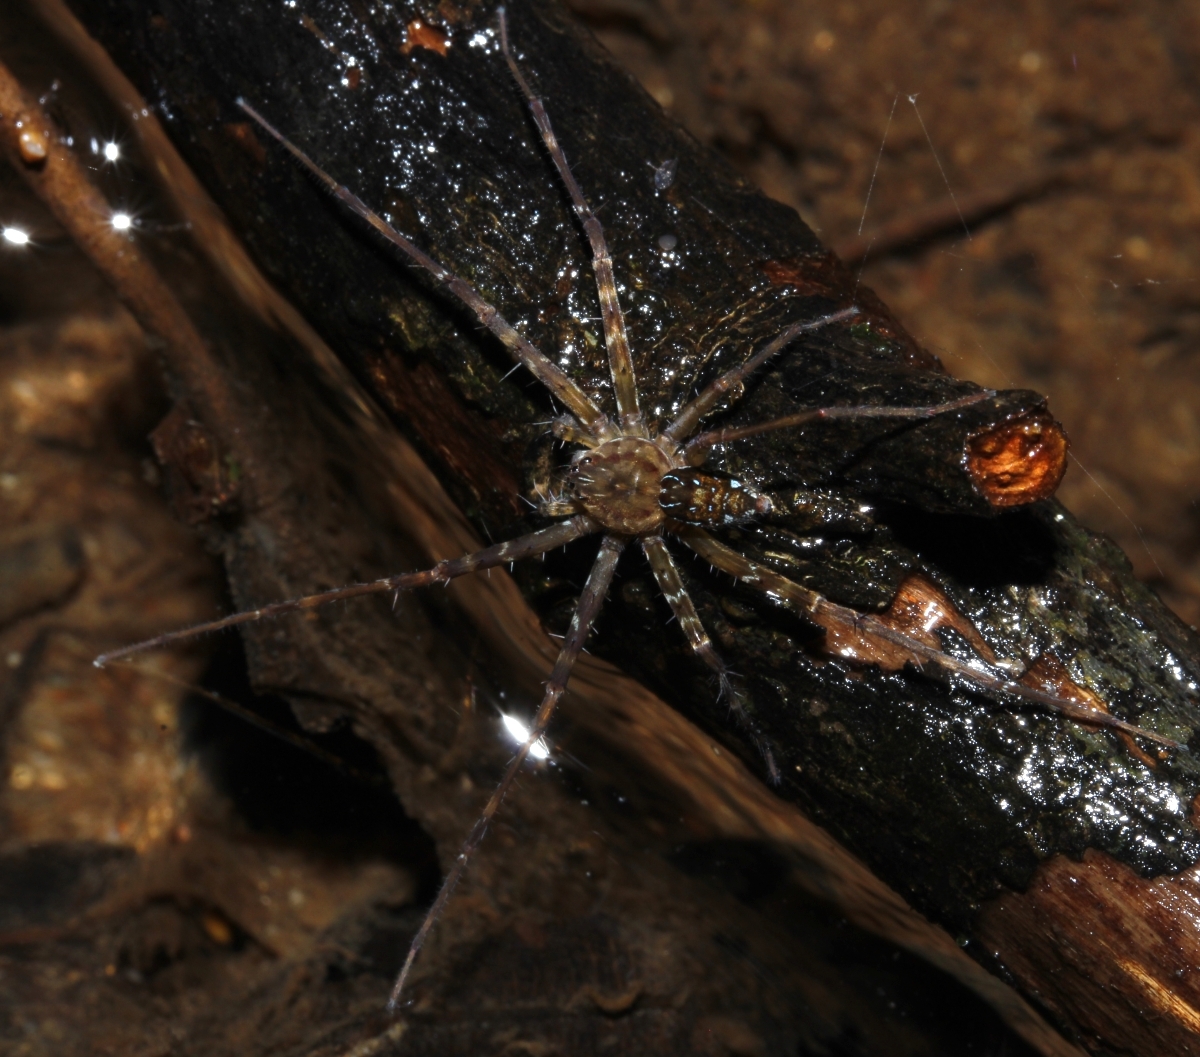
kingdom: Animalia
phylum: Arthropoda
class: Arachnida
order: Araneae
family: Pisauridae
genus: Thaumasia
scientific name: Thaumasia
